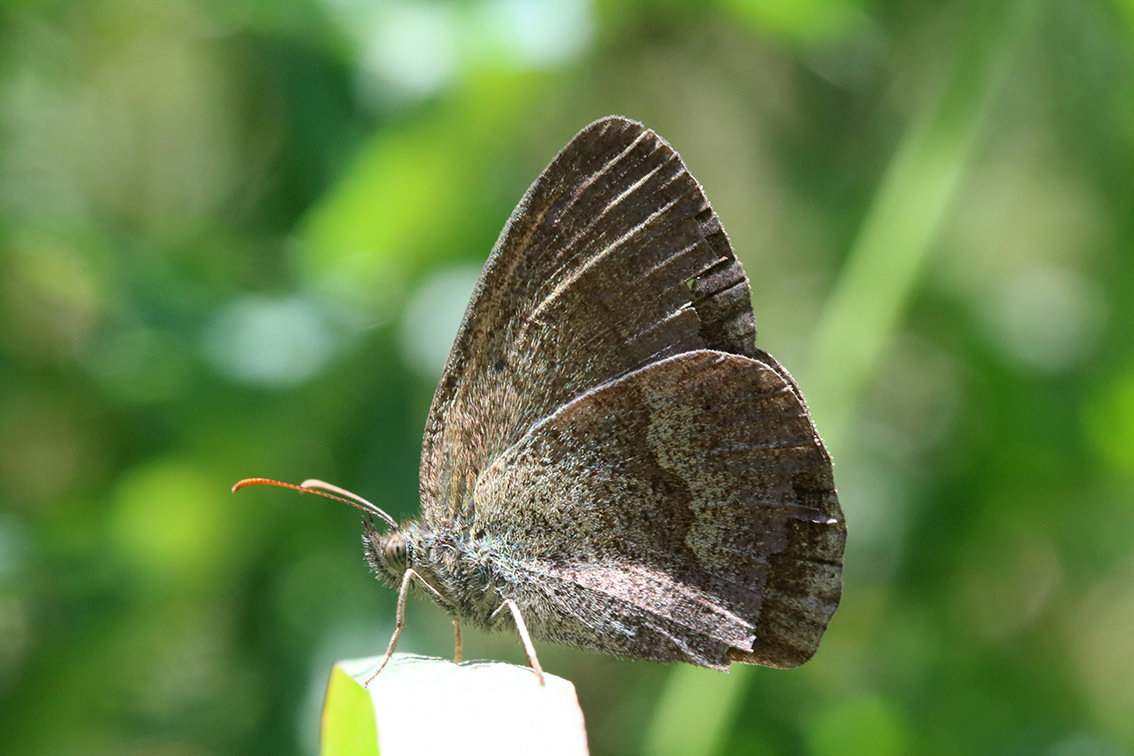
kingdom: Animalia
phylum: Arthropoda
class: Insecta
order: Lepidoptera
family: Nymphalidae
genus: Yphthimoides
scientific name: Yphthimoides celmis
